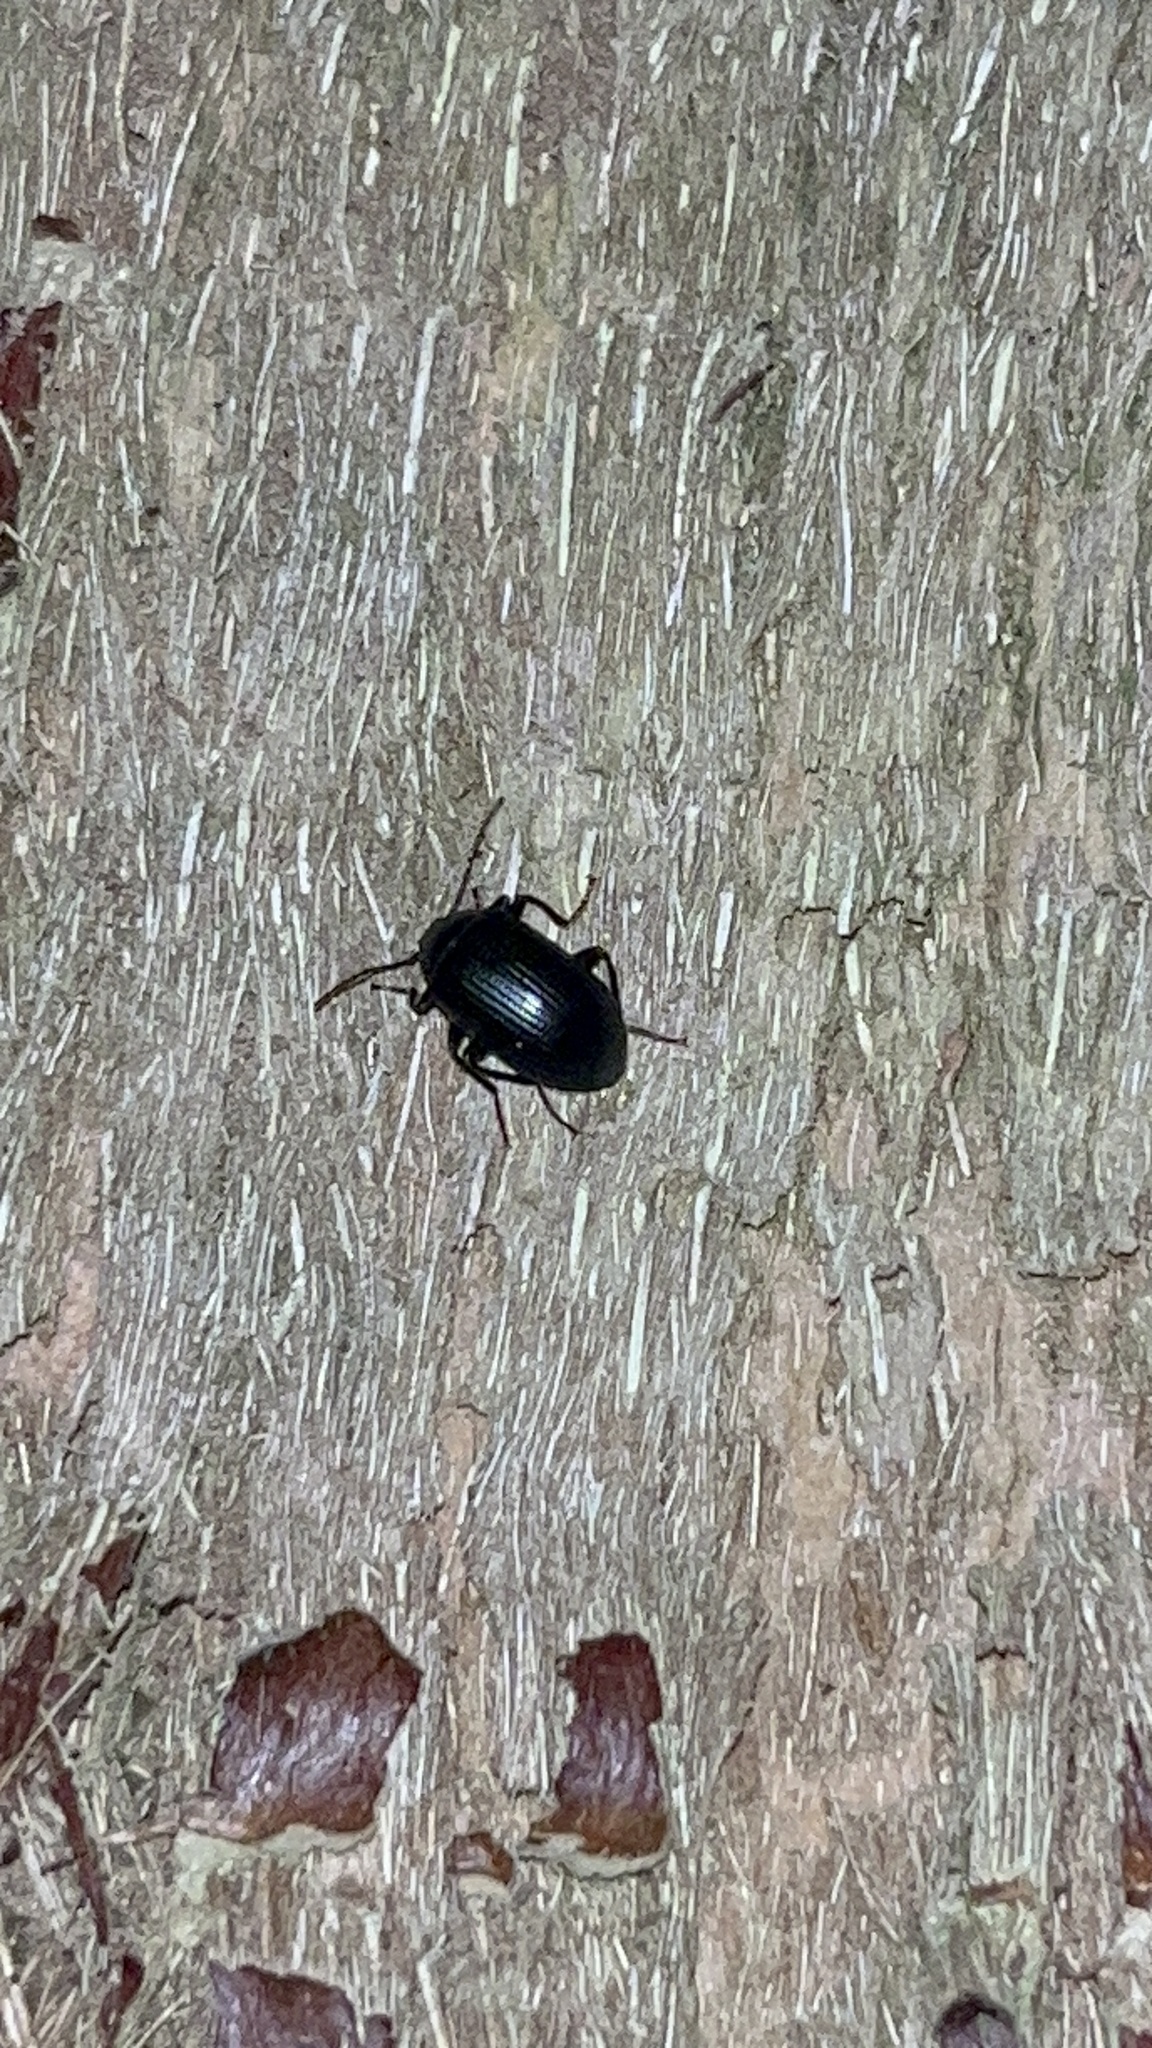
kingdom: Animalia
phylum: Arthropoda
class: Insecta
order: Coleoptera
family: Tenebrionidae
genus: Amarygmus
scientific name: Amarygmus
